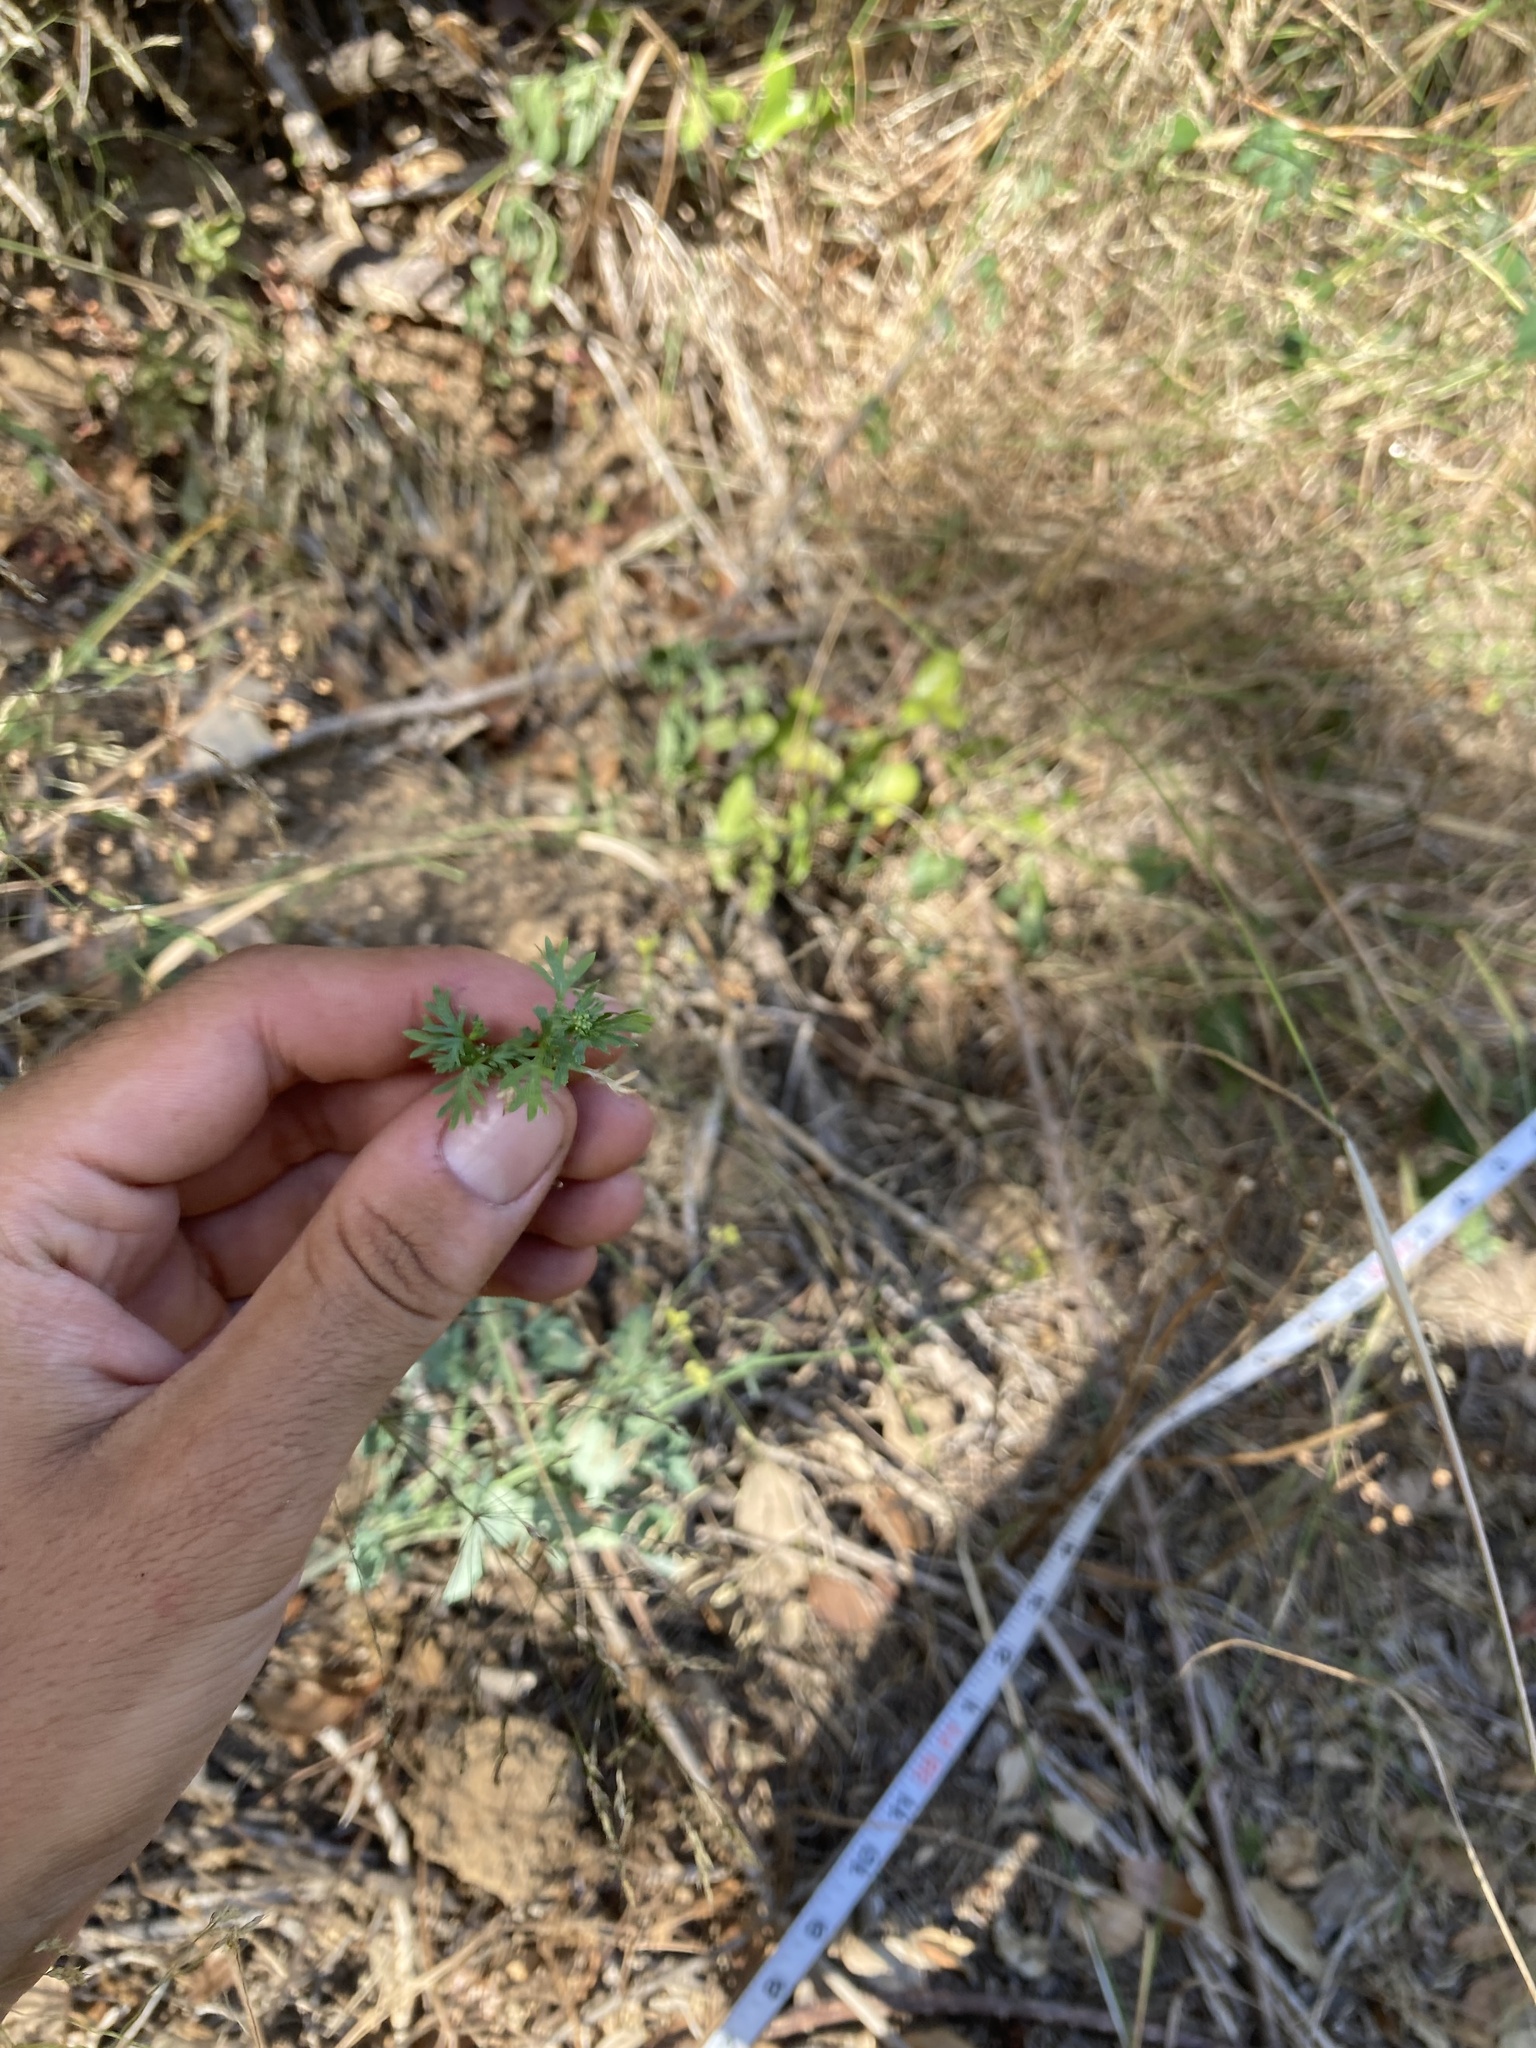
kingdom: Plantae
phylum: Tracheophyta
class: Magnoliopsida
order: Brassicales
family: Brassicaceae
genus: Lepidium
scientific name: Lepidium didymum
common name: Lesser swinecress
